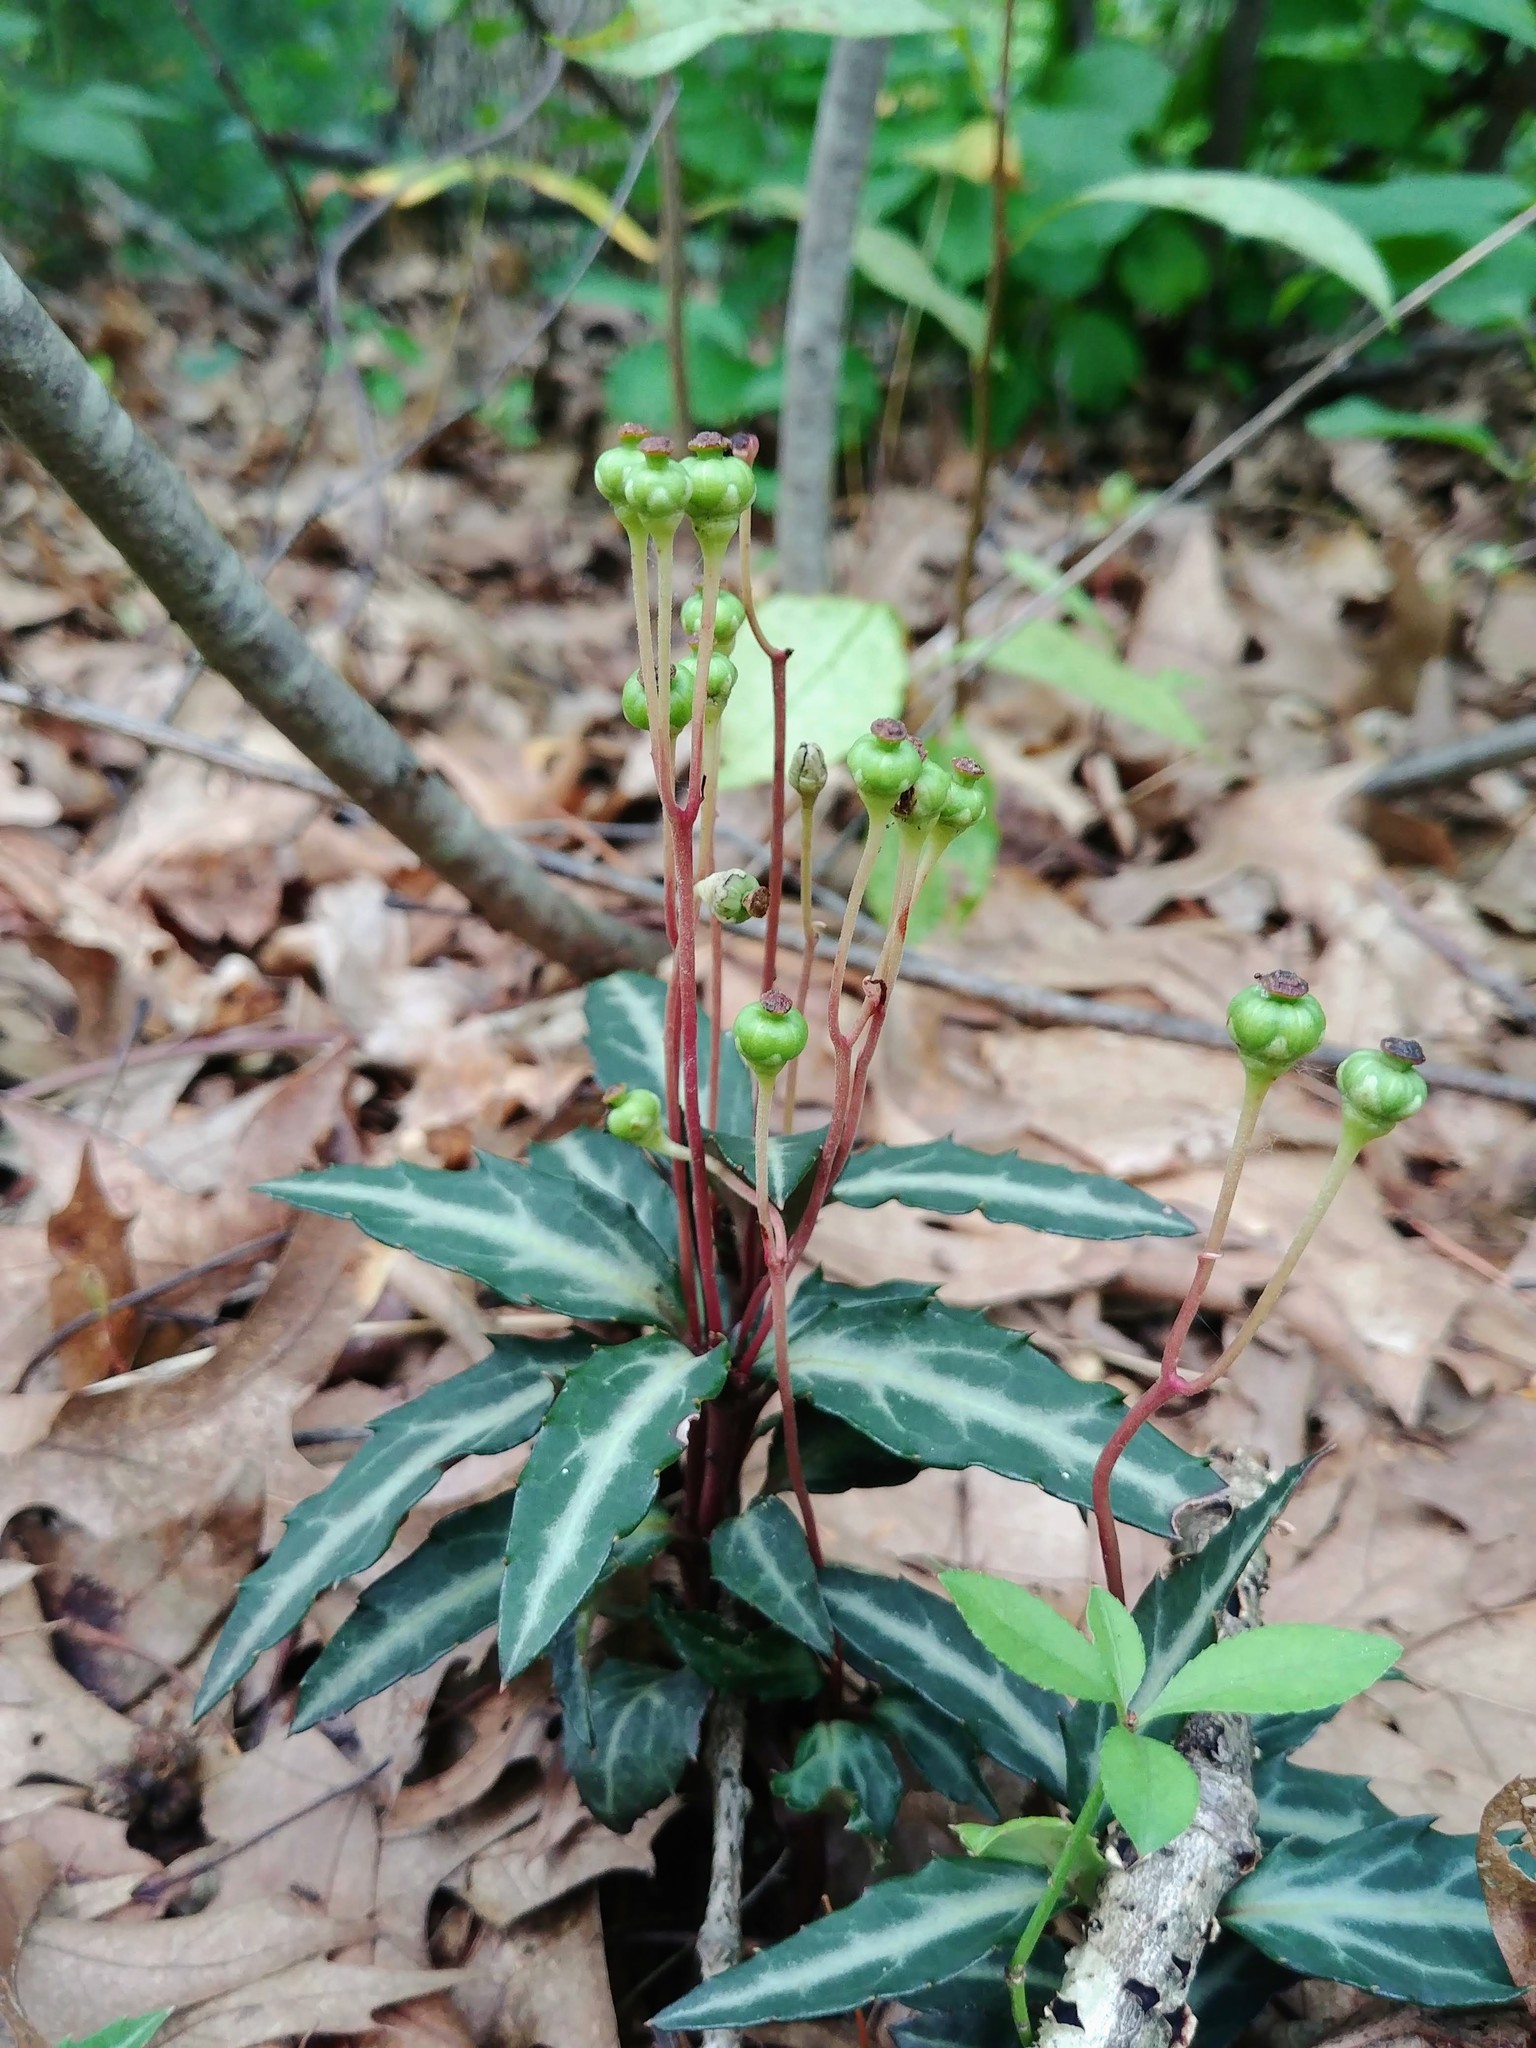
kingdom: Plantae
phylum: Tracheophyta
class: Magnoliopsida
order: Ericales
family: Ericaceae
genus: Chimaphila
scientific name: Chimaphila maculata
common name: Spotted pipsissewa
